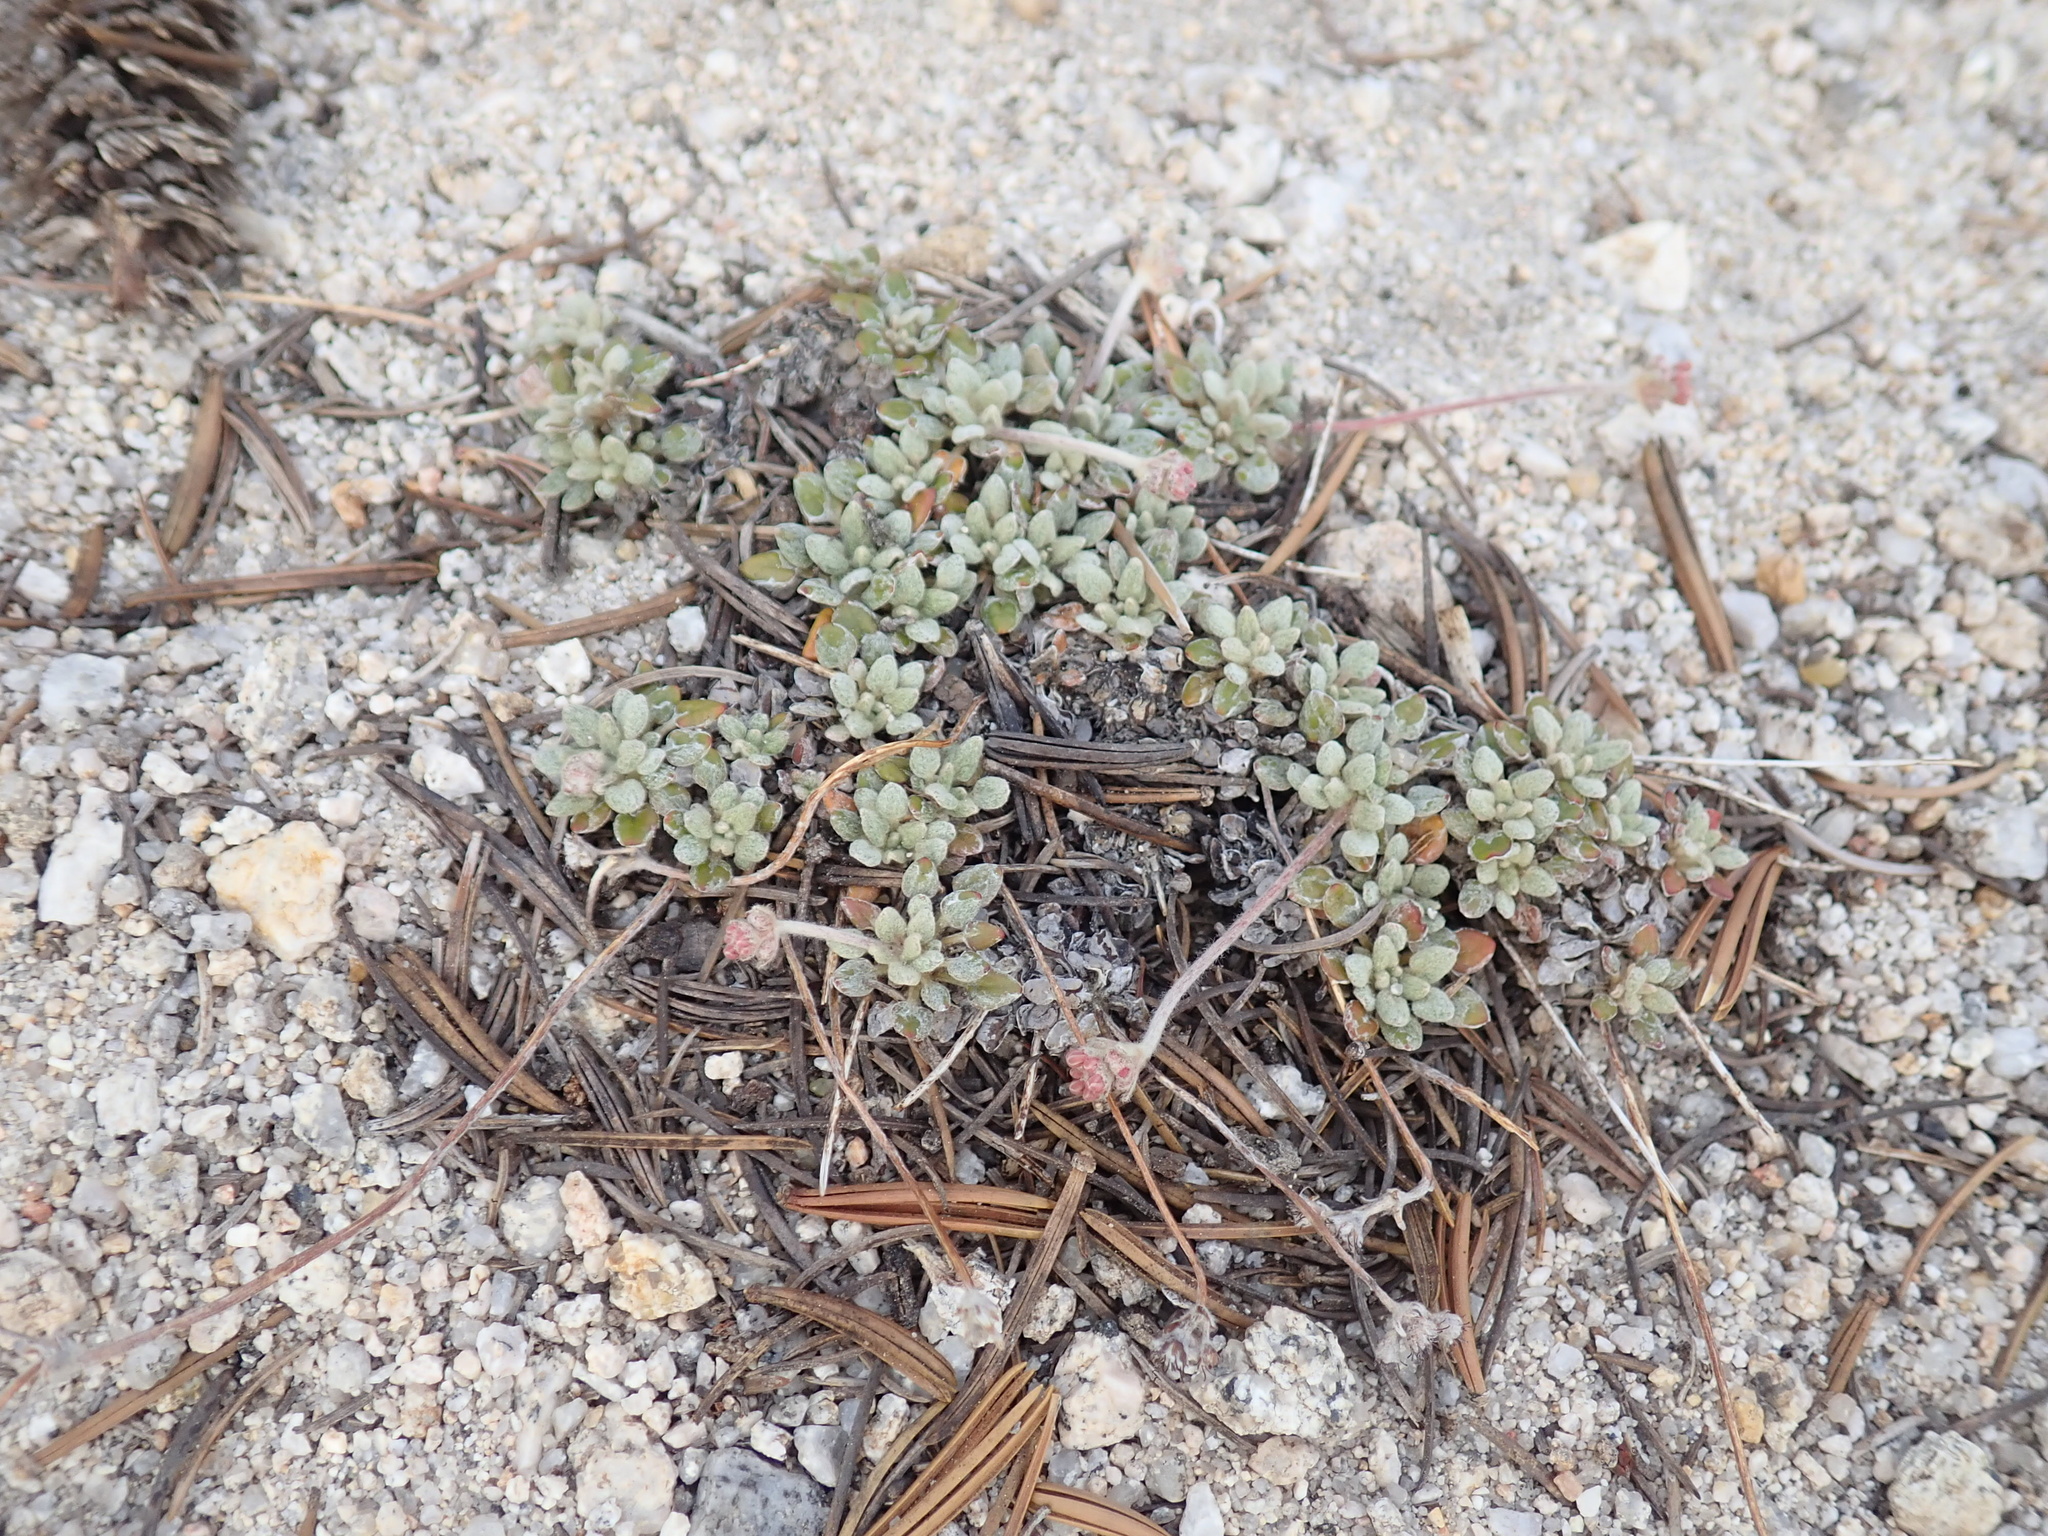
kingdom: Plantae
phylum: Tracheophyta
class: Magnoliopsida
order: Caryophyllales
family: Polygonaceae
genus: Eriogonum
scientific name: Eriogonum polypodum
